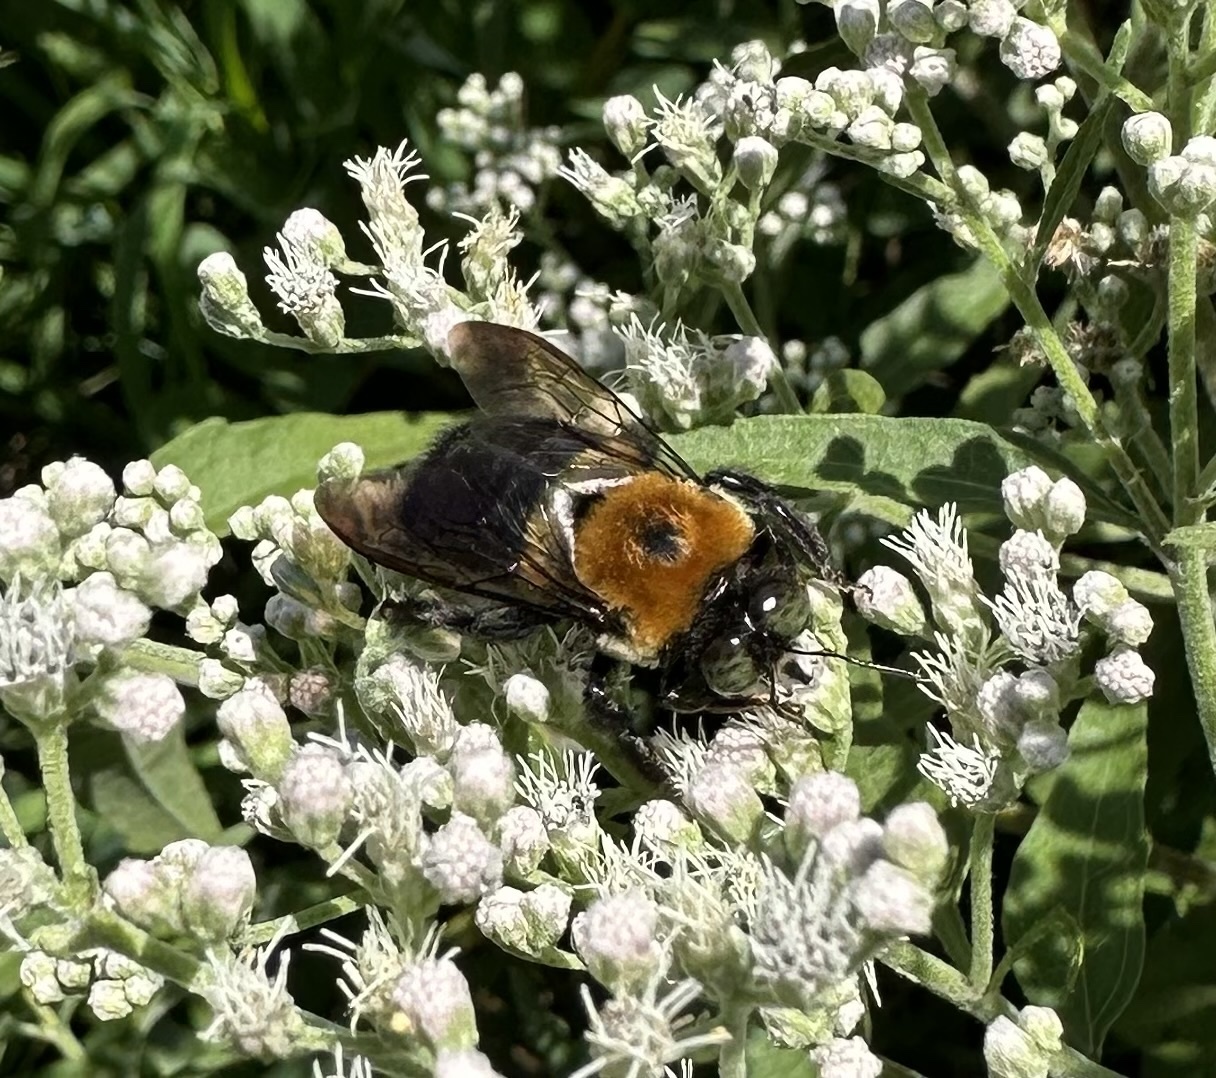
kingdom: Animalia
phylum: Arthropoda
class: Insecta
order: Hymenoptera
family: Apidae
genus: Xylocopa
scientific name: Xylocopa virginica
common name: Carpenter bee
